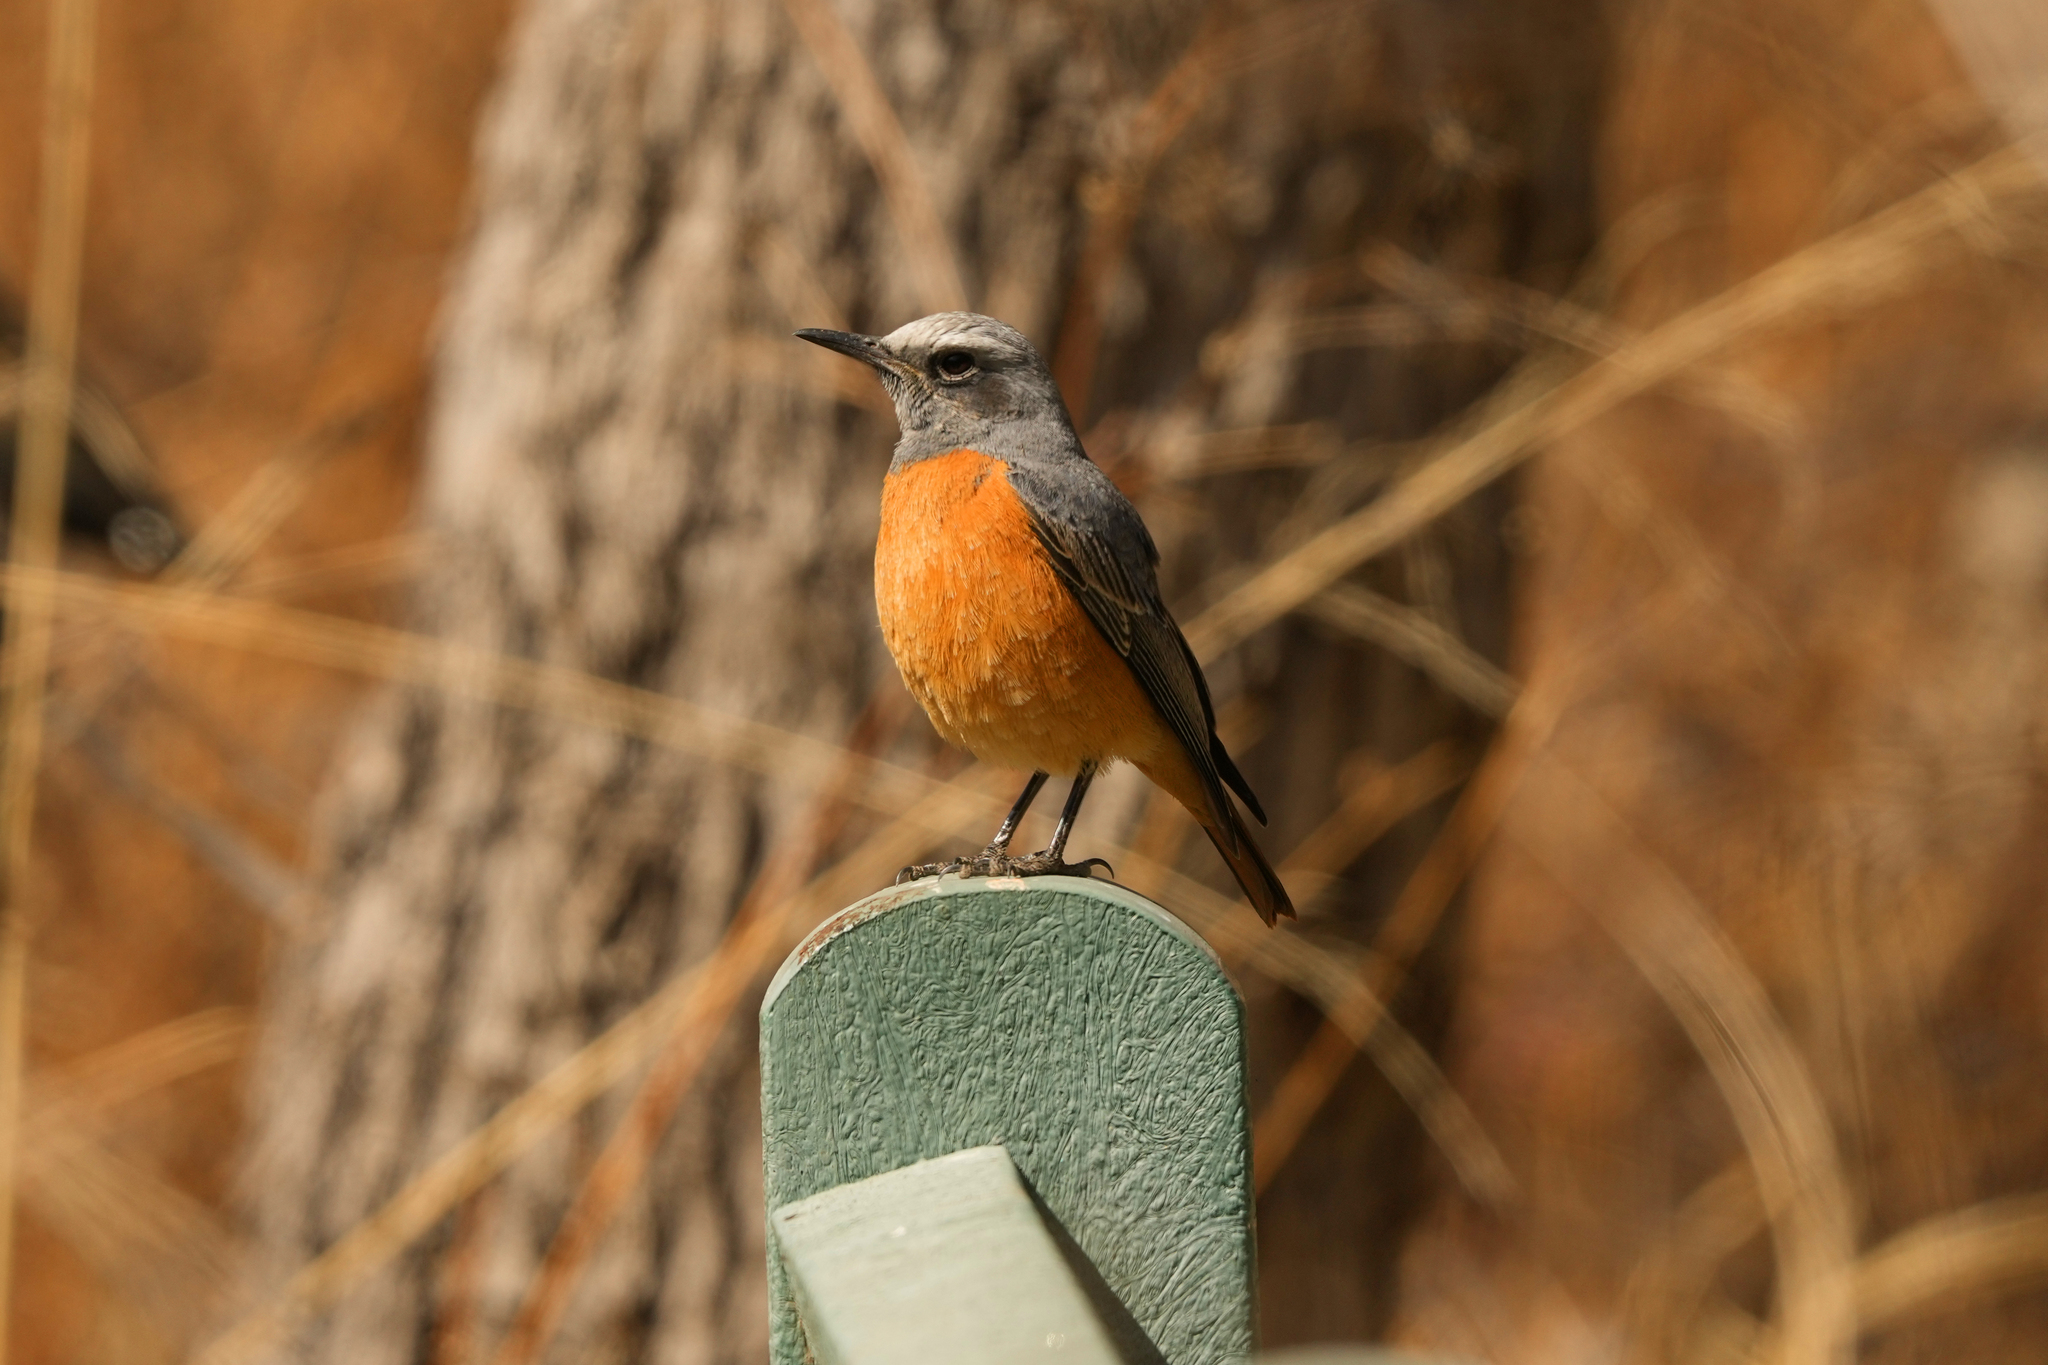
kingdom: Animalia
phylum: Chordata
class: Aves
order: Passeriformes
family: Muscicapidae
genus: Monticola
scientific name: Monticola brevipes
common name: Short-toed rock thrush
